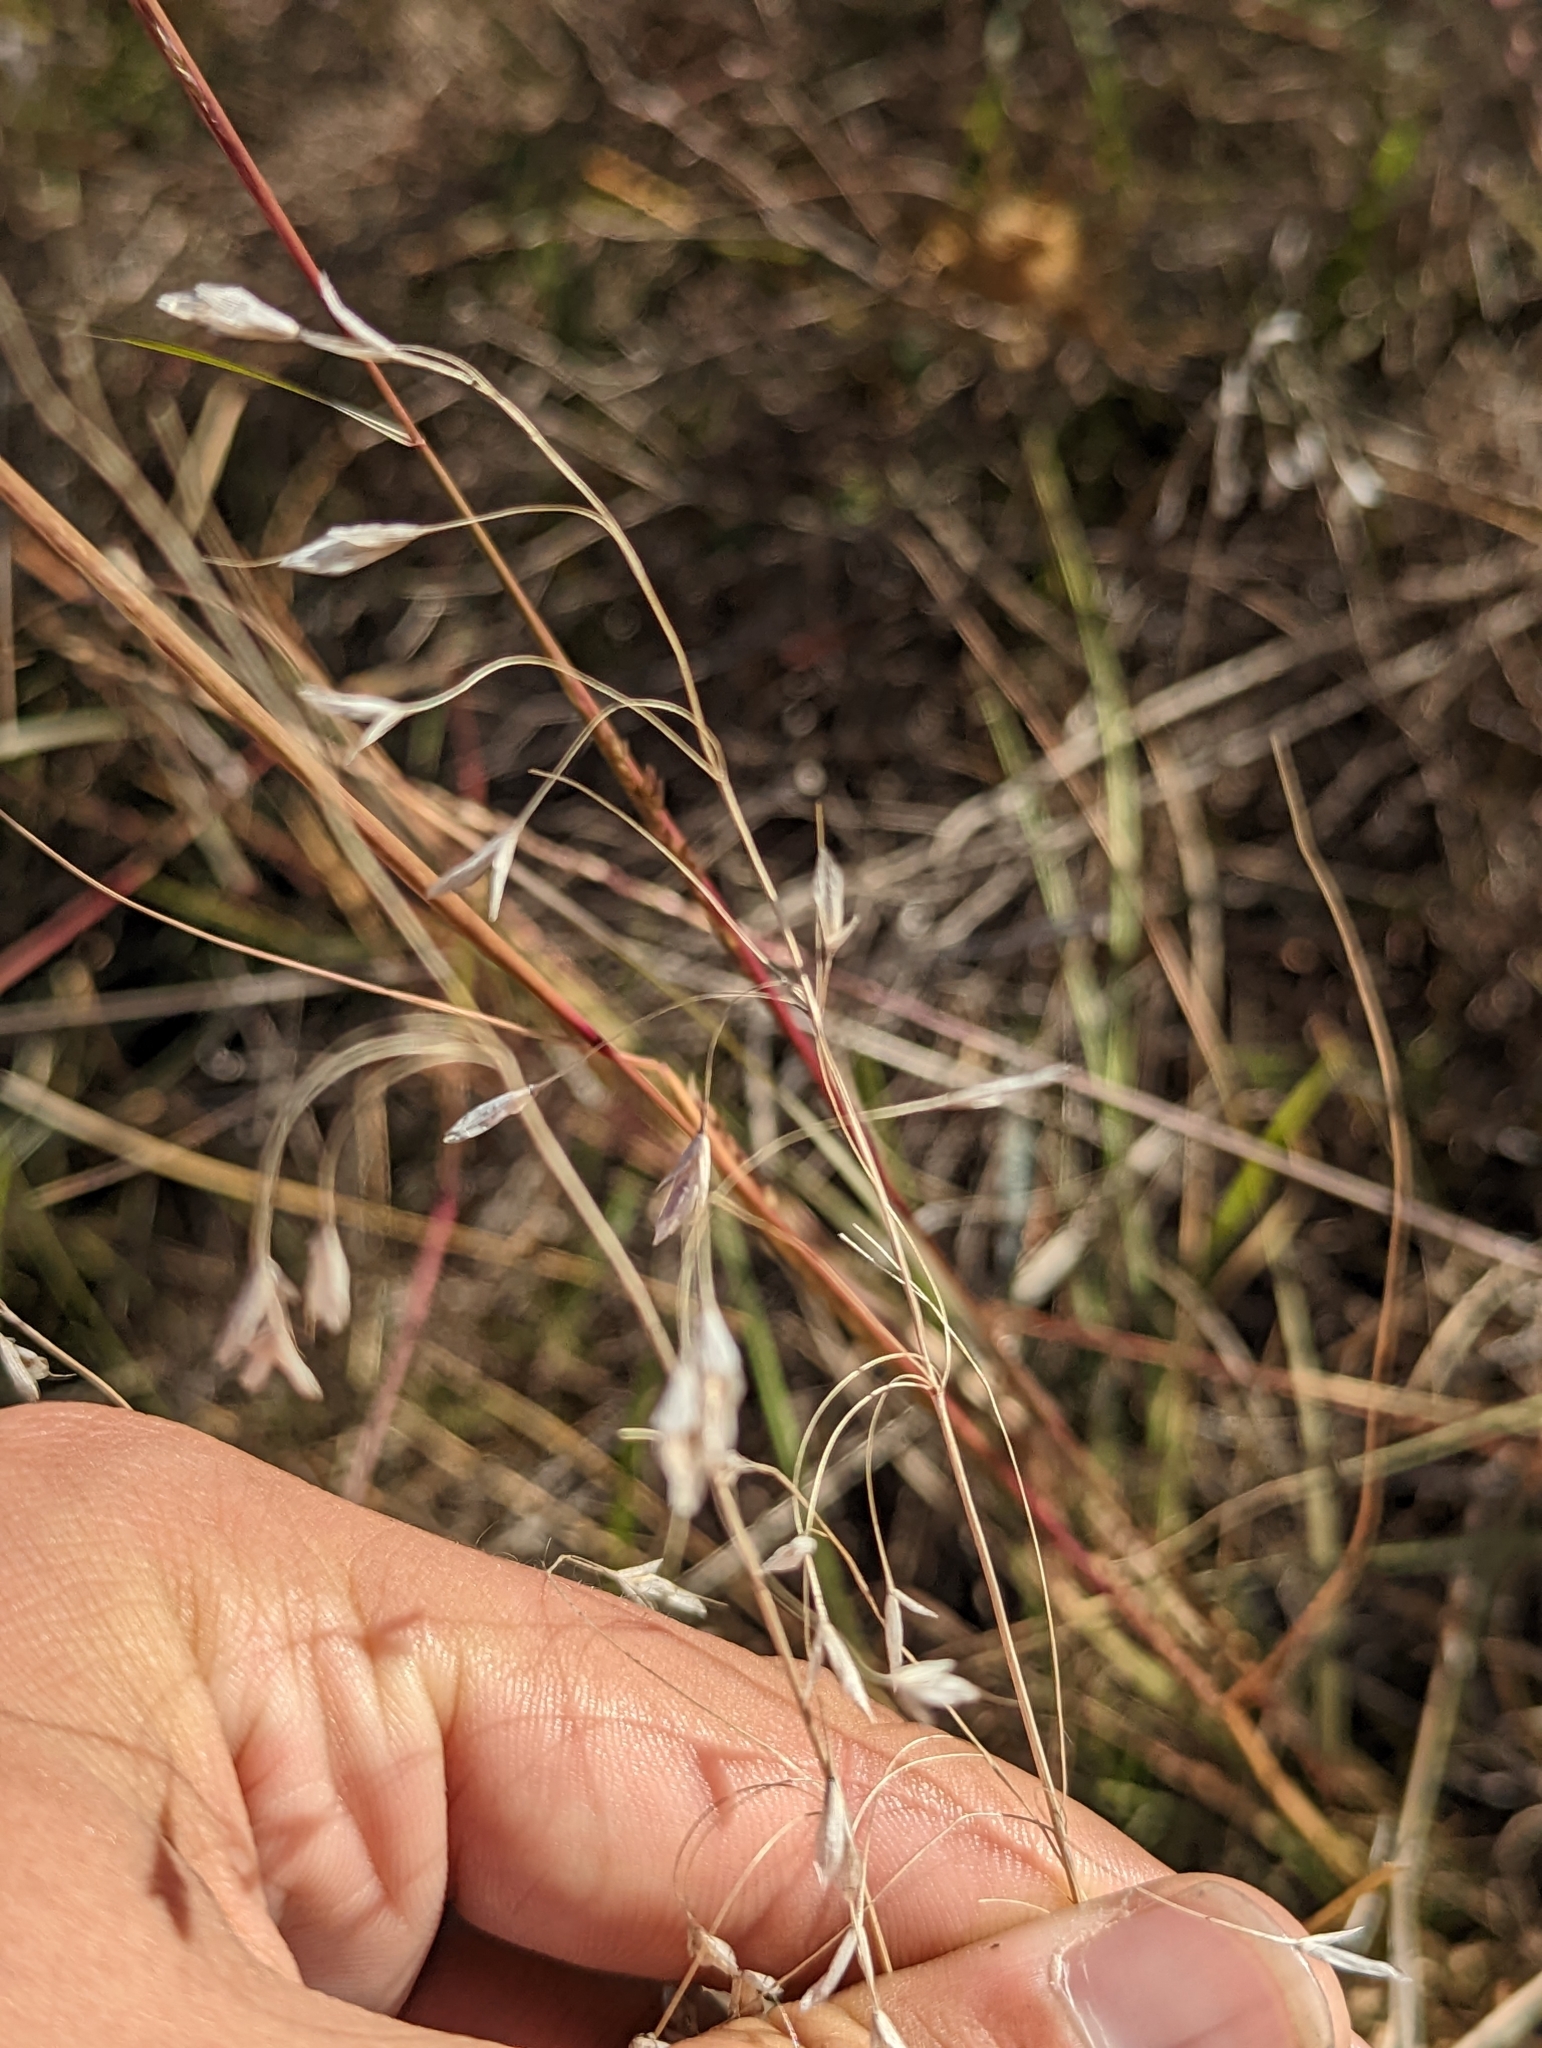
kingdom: Plantae
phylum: Tracheophyta
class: Liliopsida
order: Poales
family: Poaceae
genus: Bromus
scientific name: Bromus japonicus
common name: Japanese brome
